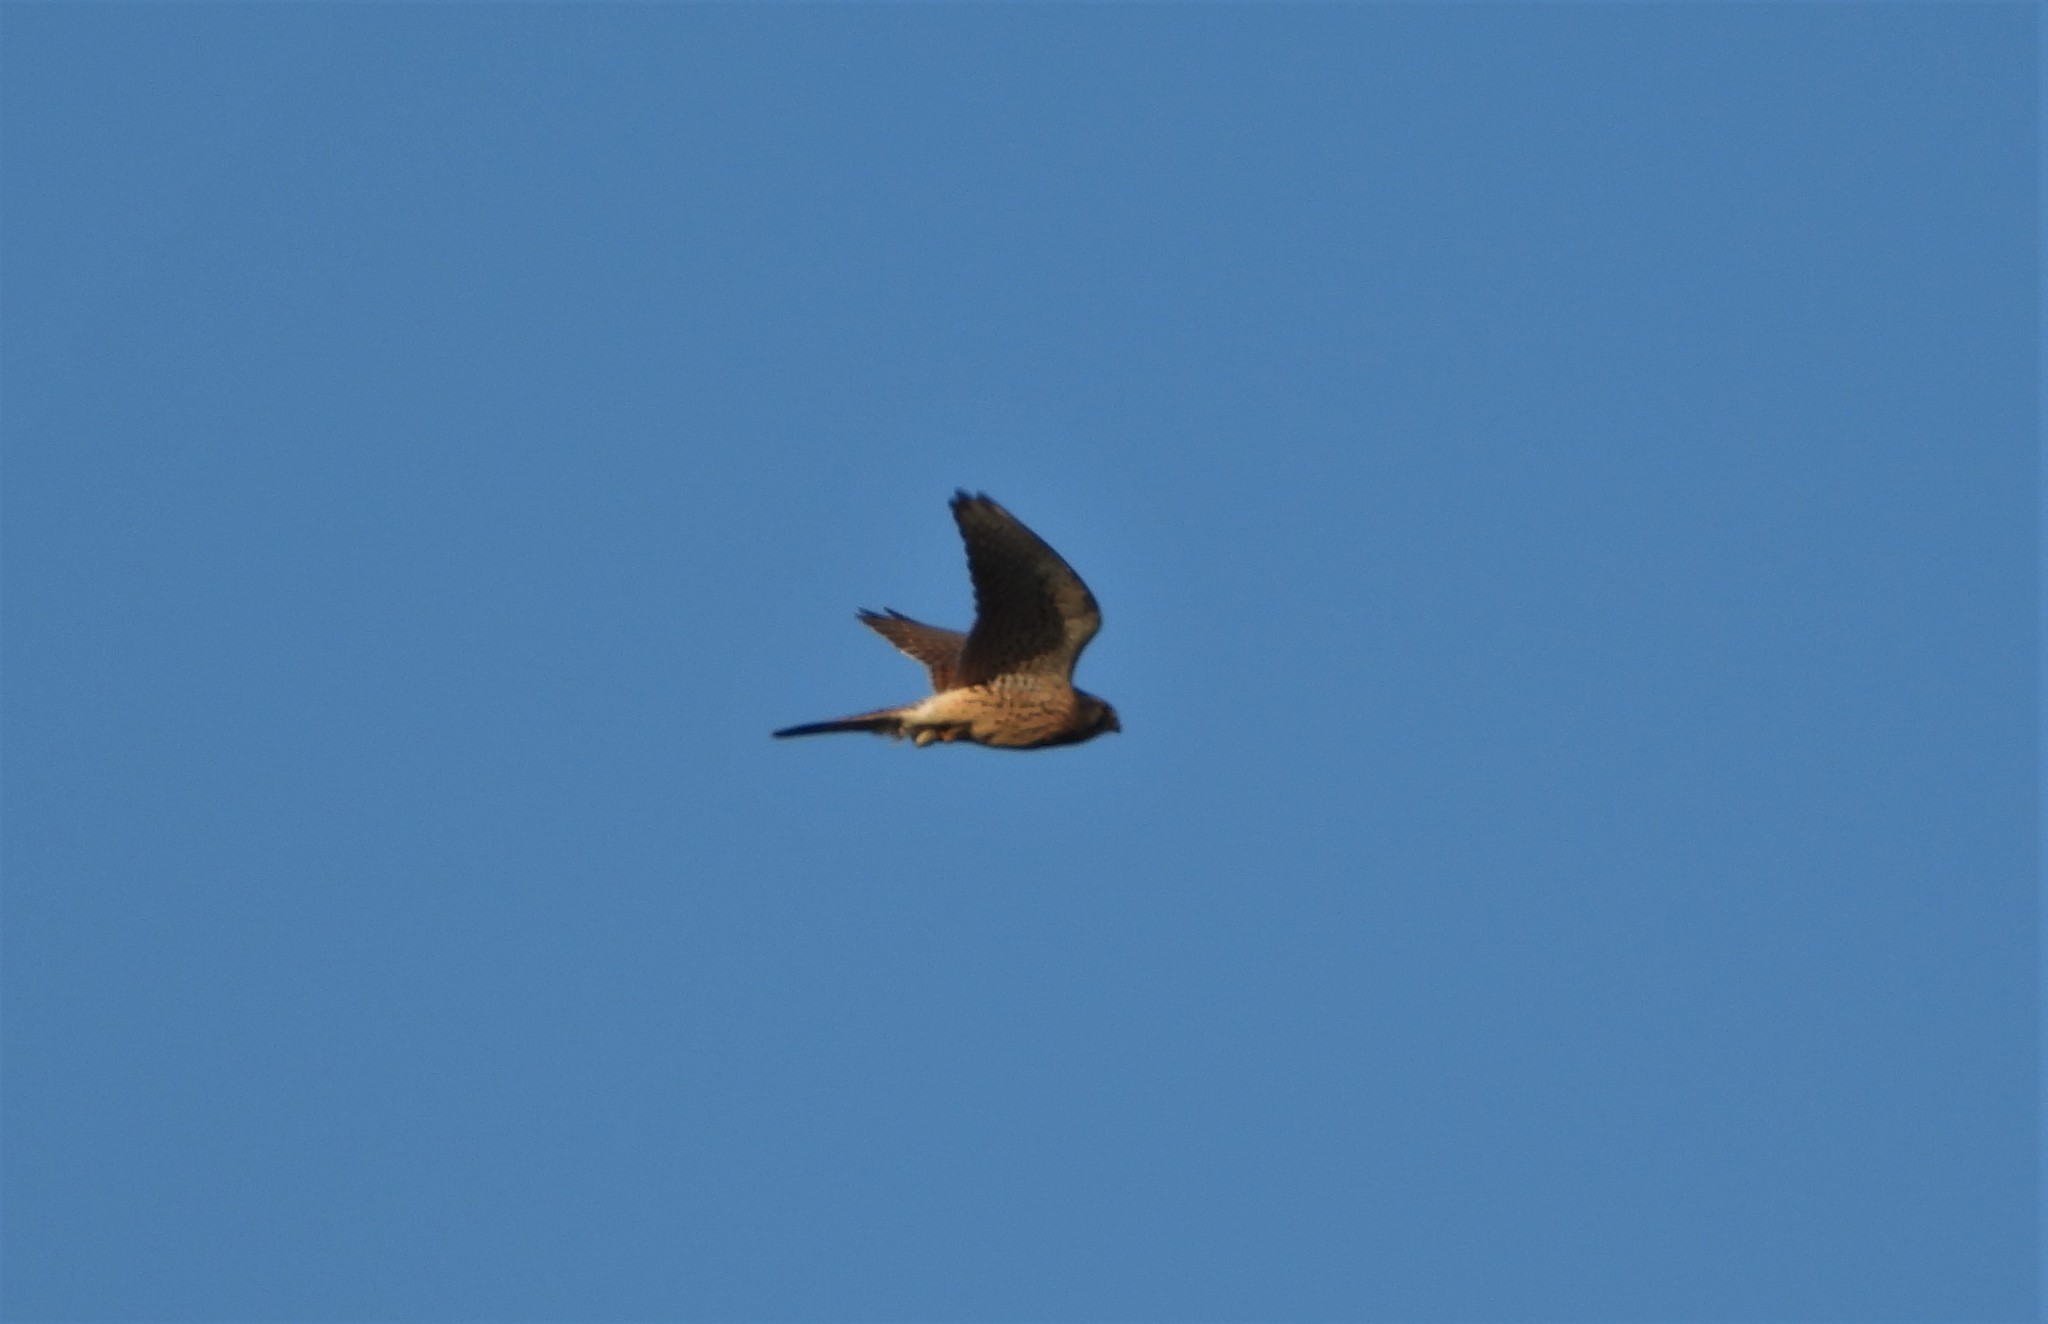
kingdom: Animalia
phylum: Chordata
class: Aves
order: Falconiformes
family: Falconidae
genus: Falco
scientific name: Falco tinnunculus
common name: Common kestrel
